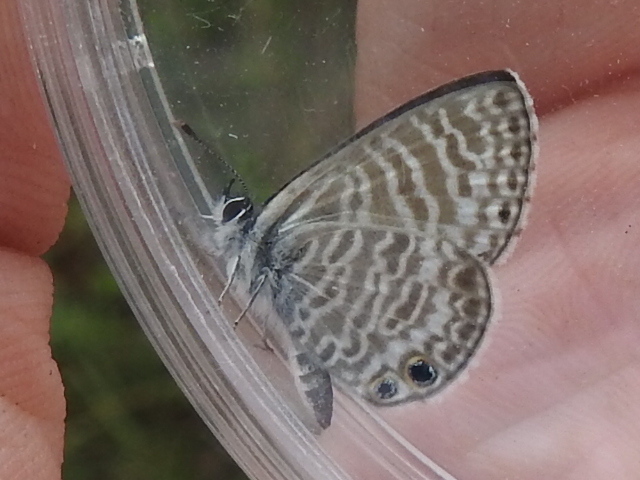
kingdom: Animalia
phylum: Arthropoda
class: Insecta
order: Lepidoptera
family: Lycaenidae
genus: Leptotes
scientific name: Leptotes marina
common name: Marine blue
